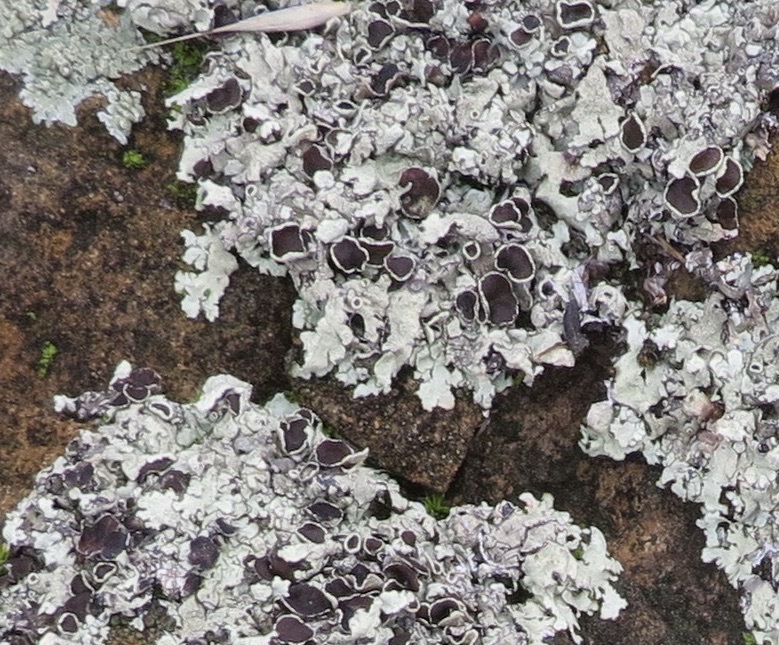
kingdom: Fungi
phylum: Ascomycota
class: Lecanoromycetes
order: Lecanorales
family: Parmeliaceae
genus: Xanthoparmelia
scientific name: Xanthoparmelia cumberlandia
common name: Cumberland rock shield
